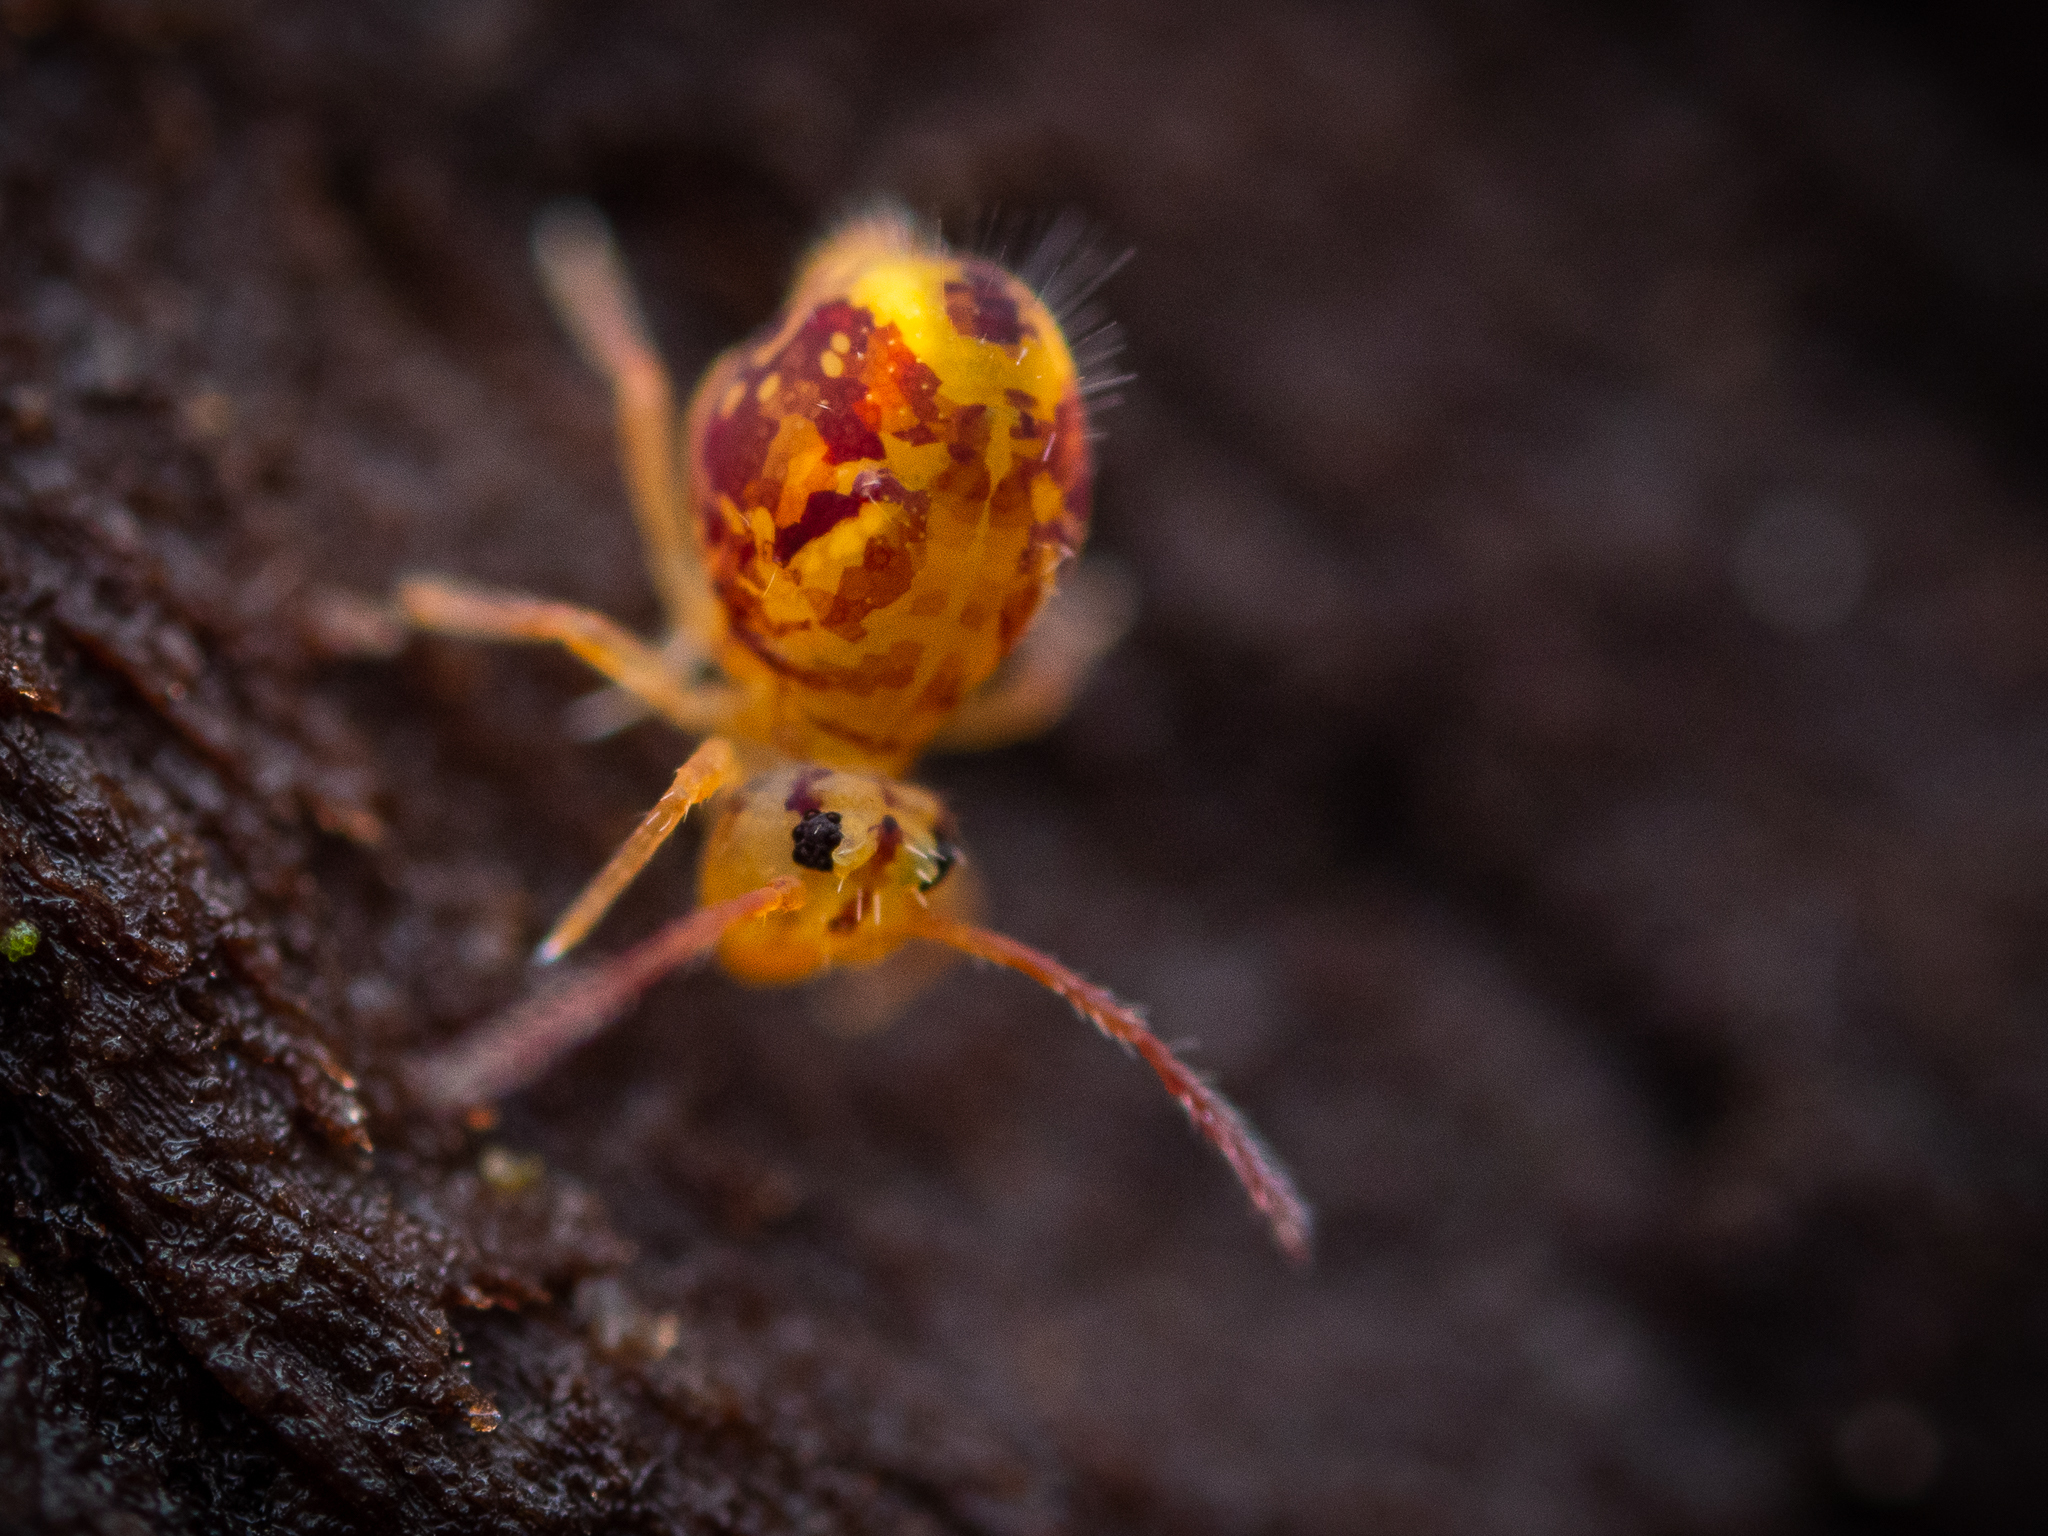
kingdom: Animalia
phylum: Arthropoda
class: Collembola
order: Symphypleona
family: Dicyrtomidae
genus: Dicyrtomina
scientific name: Dicyrtomina ornata
